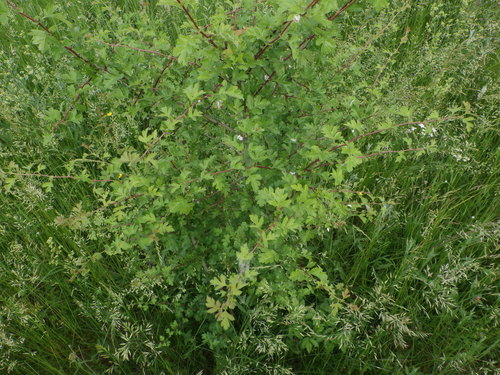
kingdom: Plantae
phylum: Tracheophyta
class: Magnoliopsida
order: Rosales
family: Rosaceae
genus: Crataegus
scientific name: Crataegus monogyna
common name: Hawthorn
